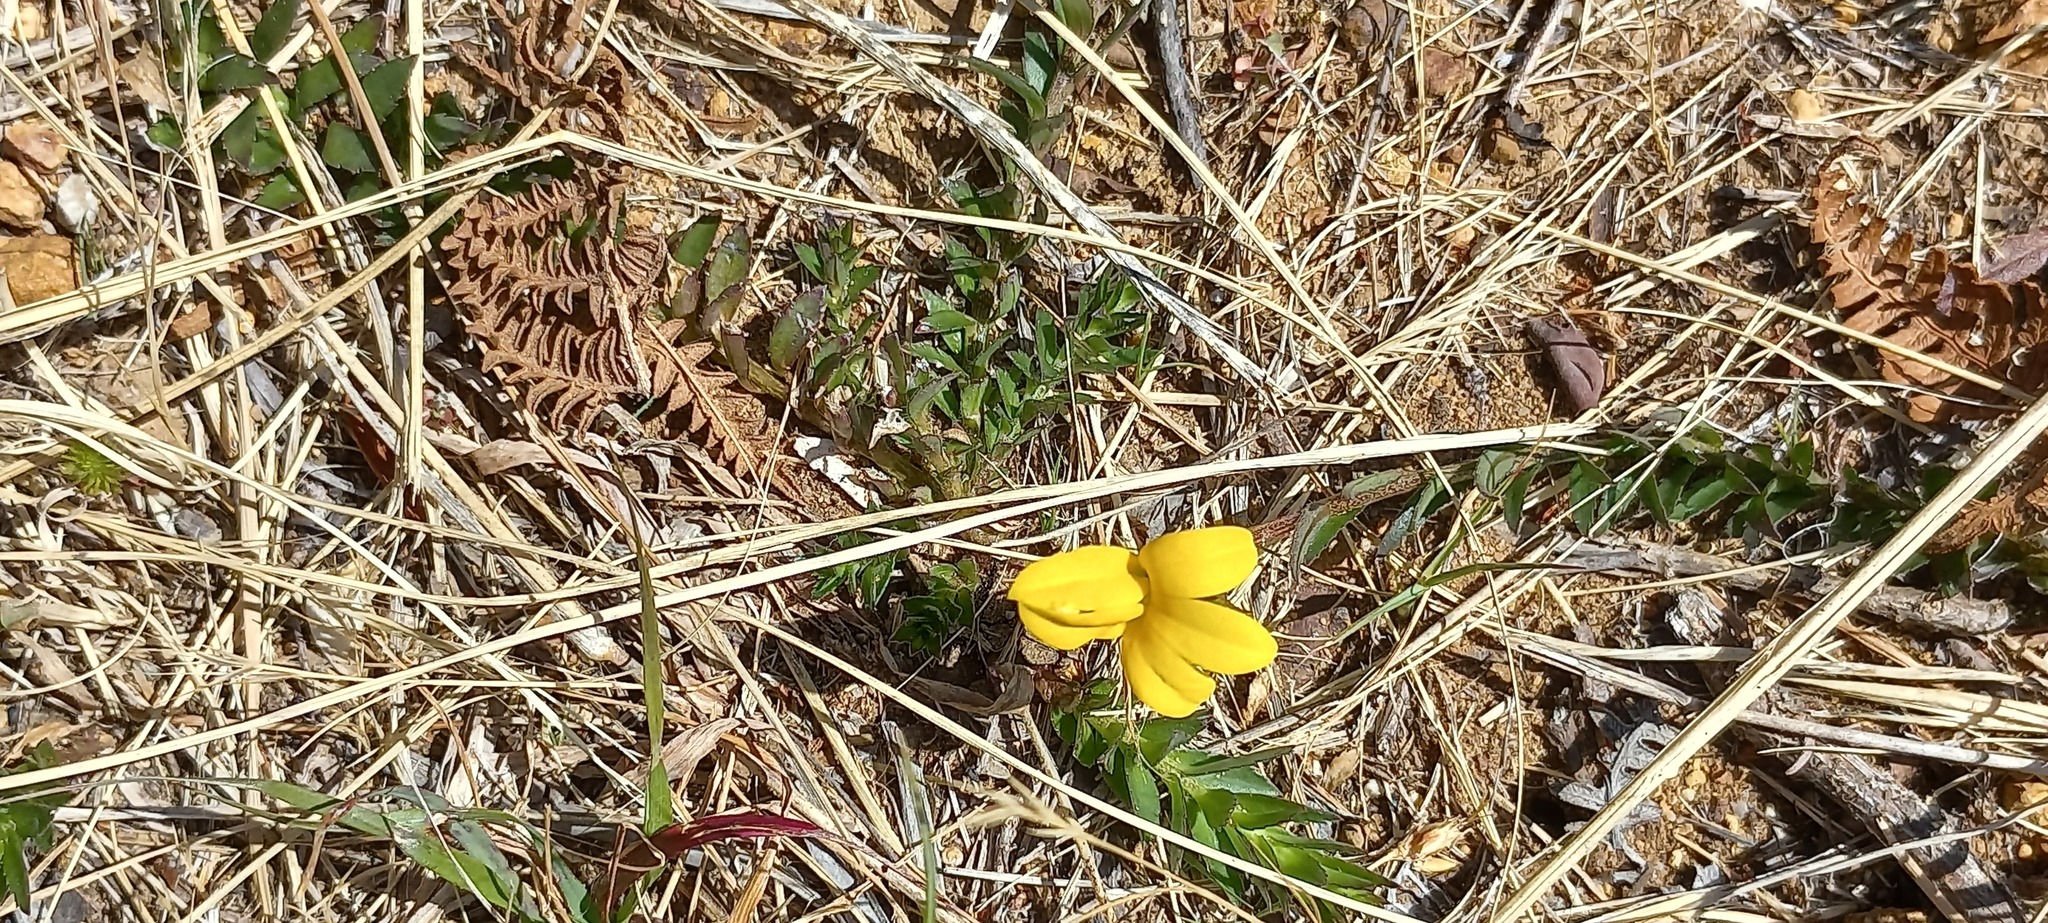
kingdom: Plantae
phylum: Tracheophyta
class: Magnoliopsida
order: Asterales
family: Campanulaceae
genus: Monopsis
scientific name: Monopsis lutea
